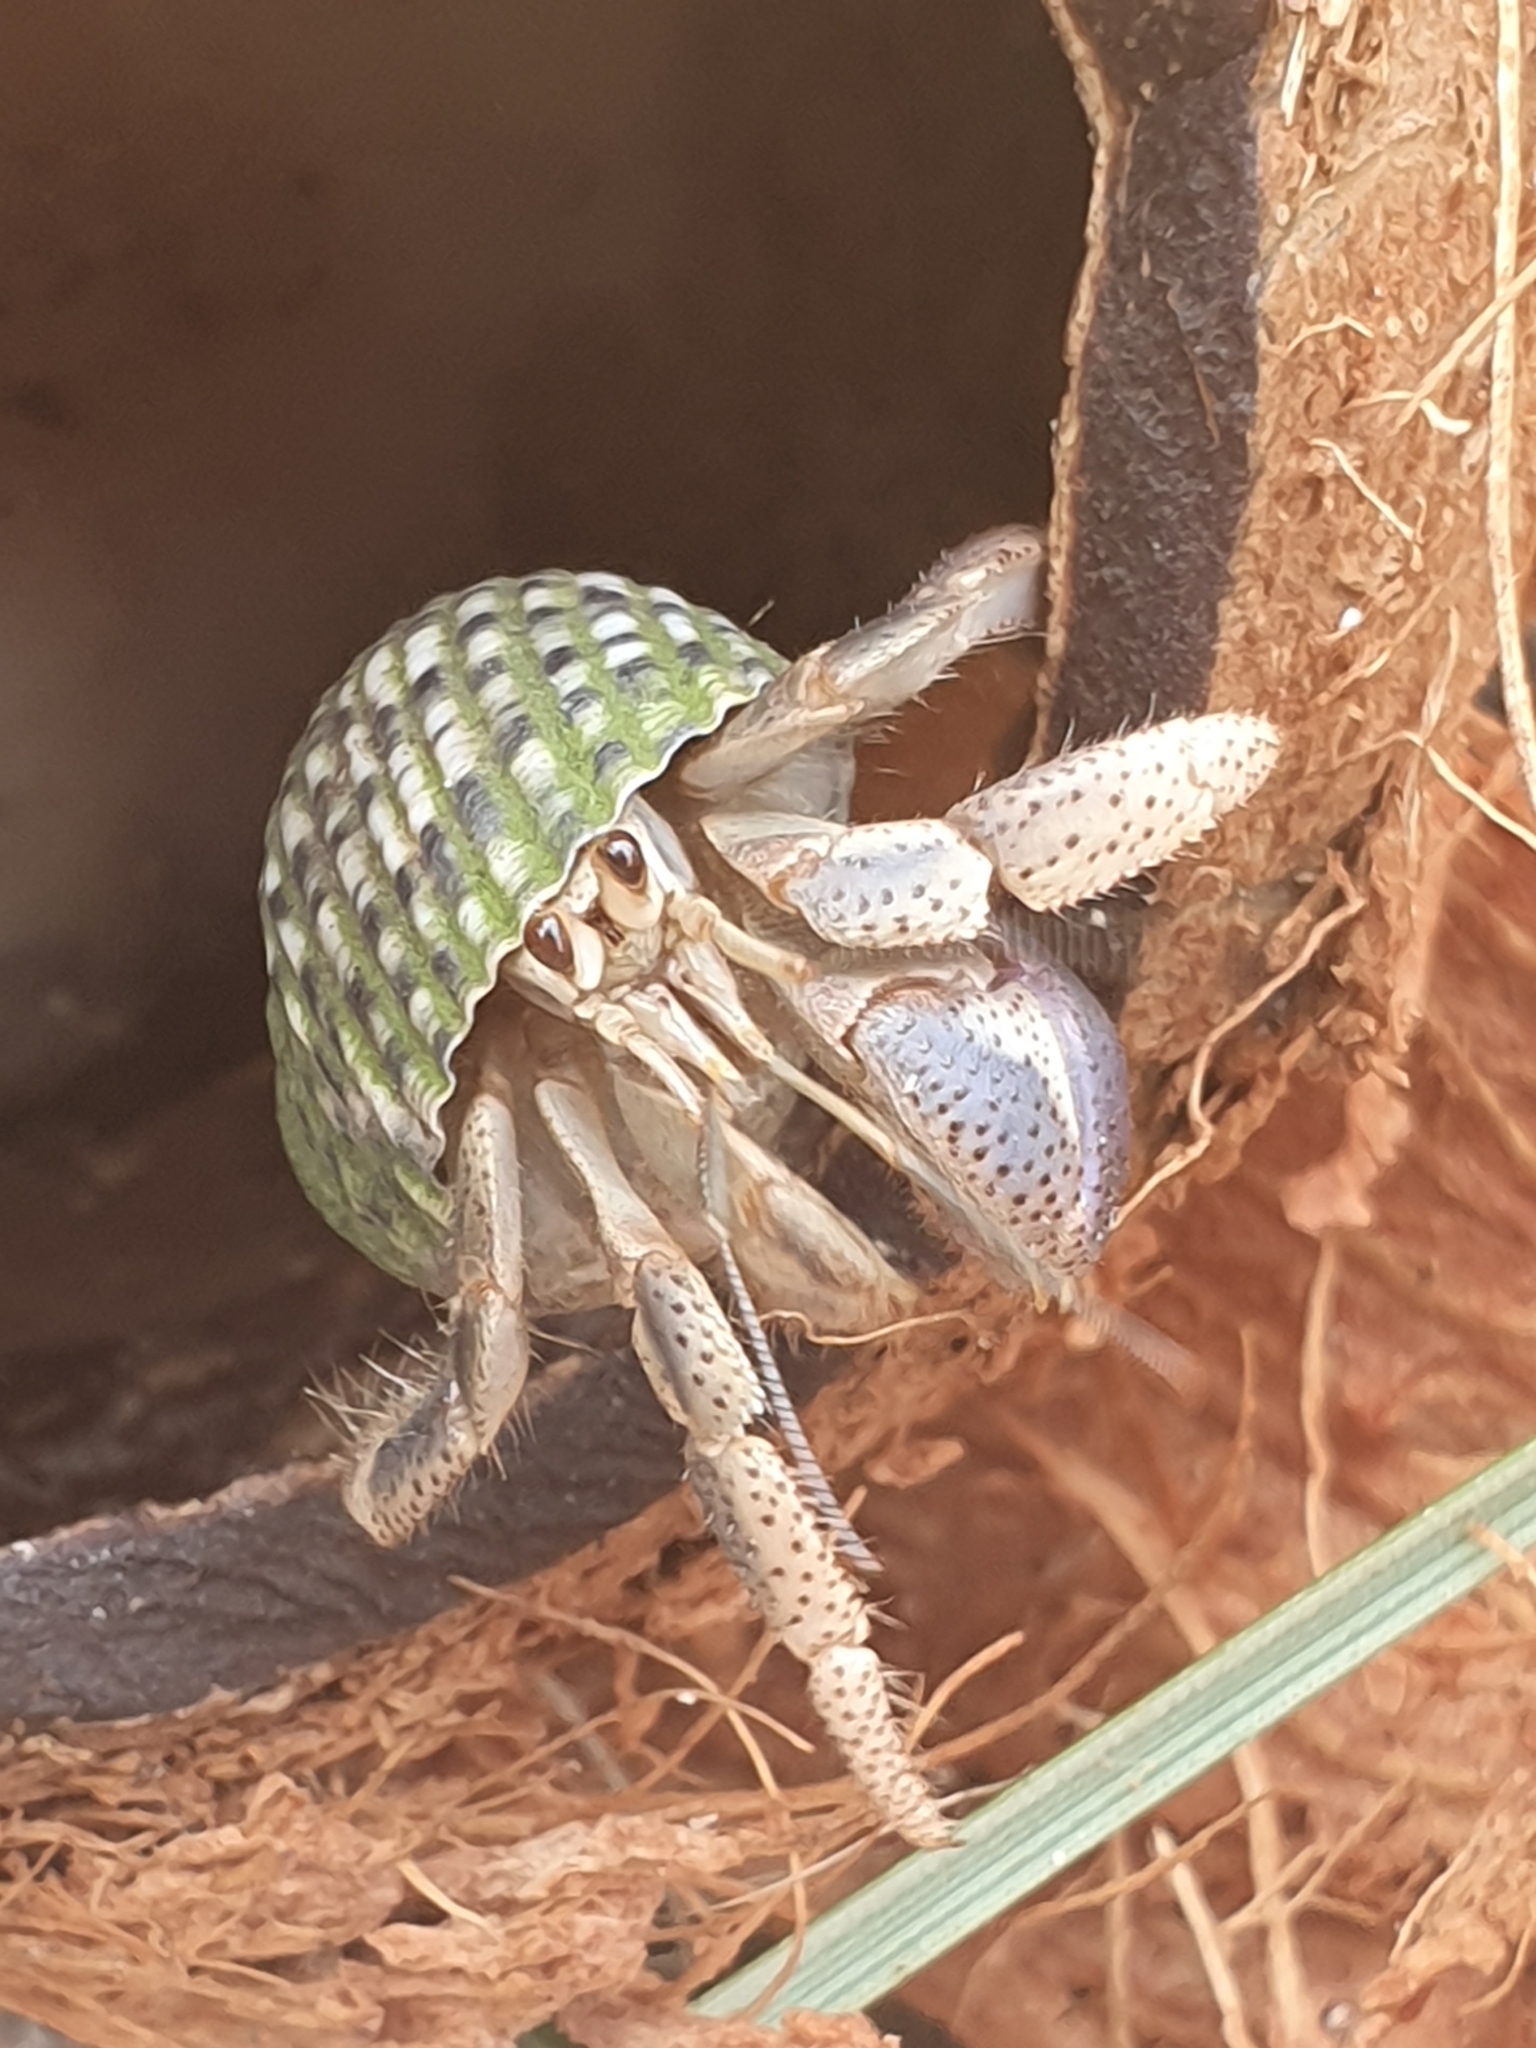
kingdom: Animalia
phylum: Arthropoda
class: Malacostraca
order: Decapoda
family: Coenobitidae
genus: Coenobita
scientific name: Coenobita clypeatus
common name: Caribbean hermit crab
